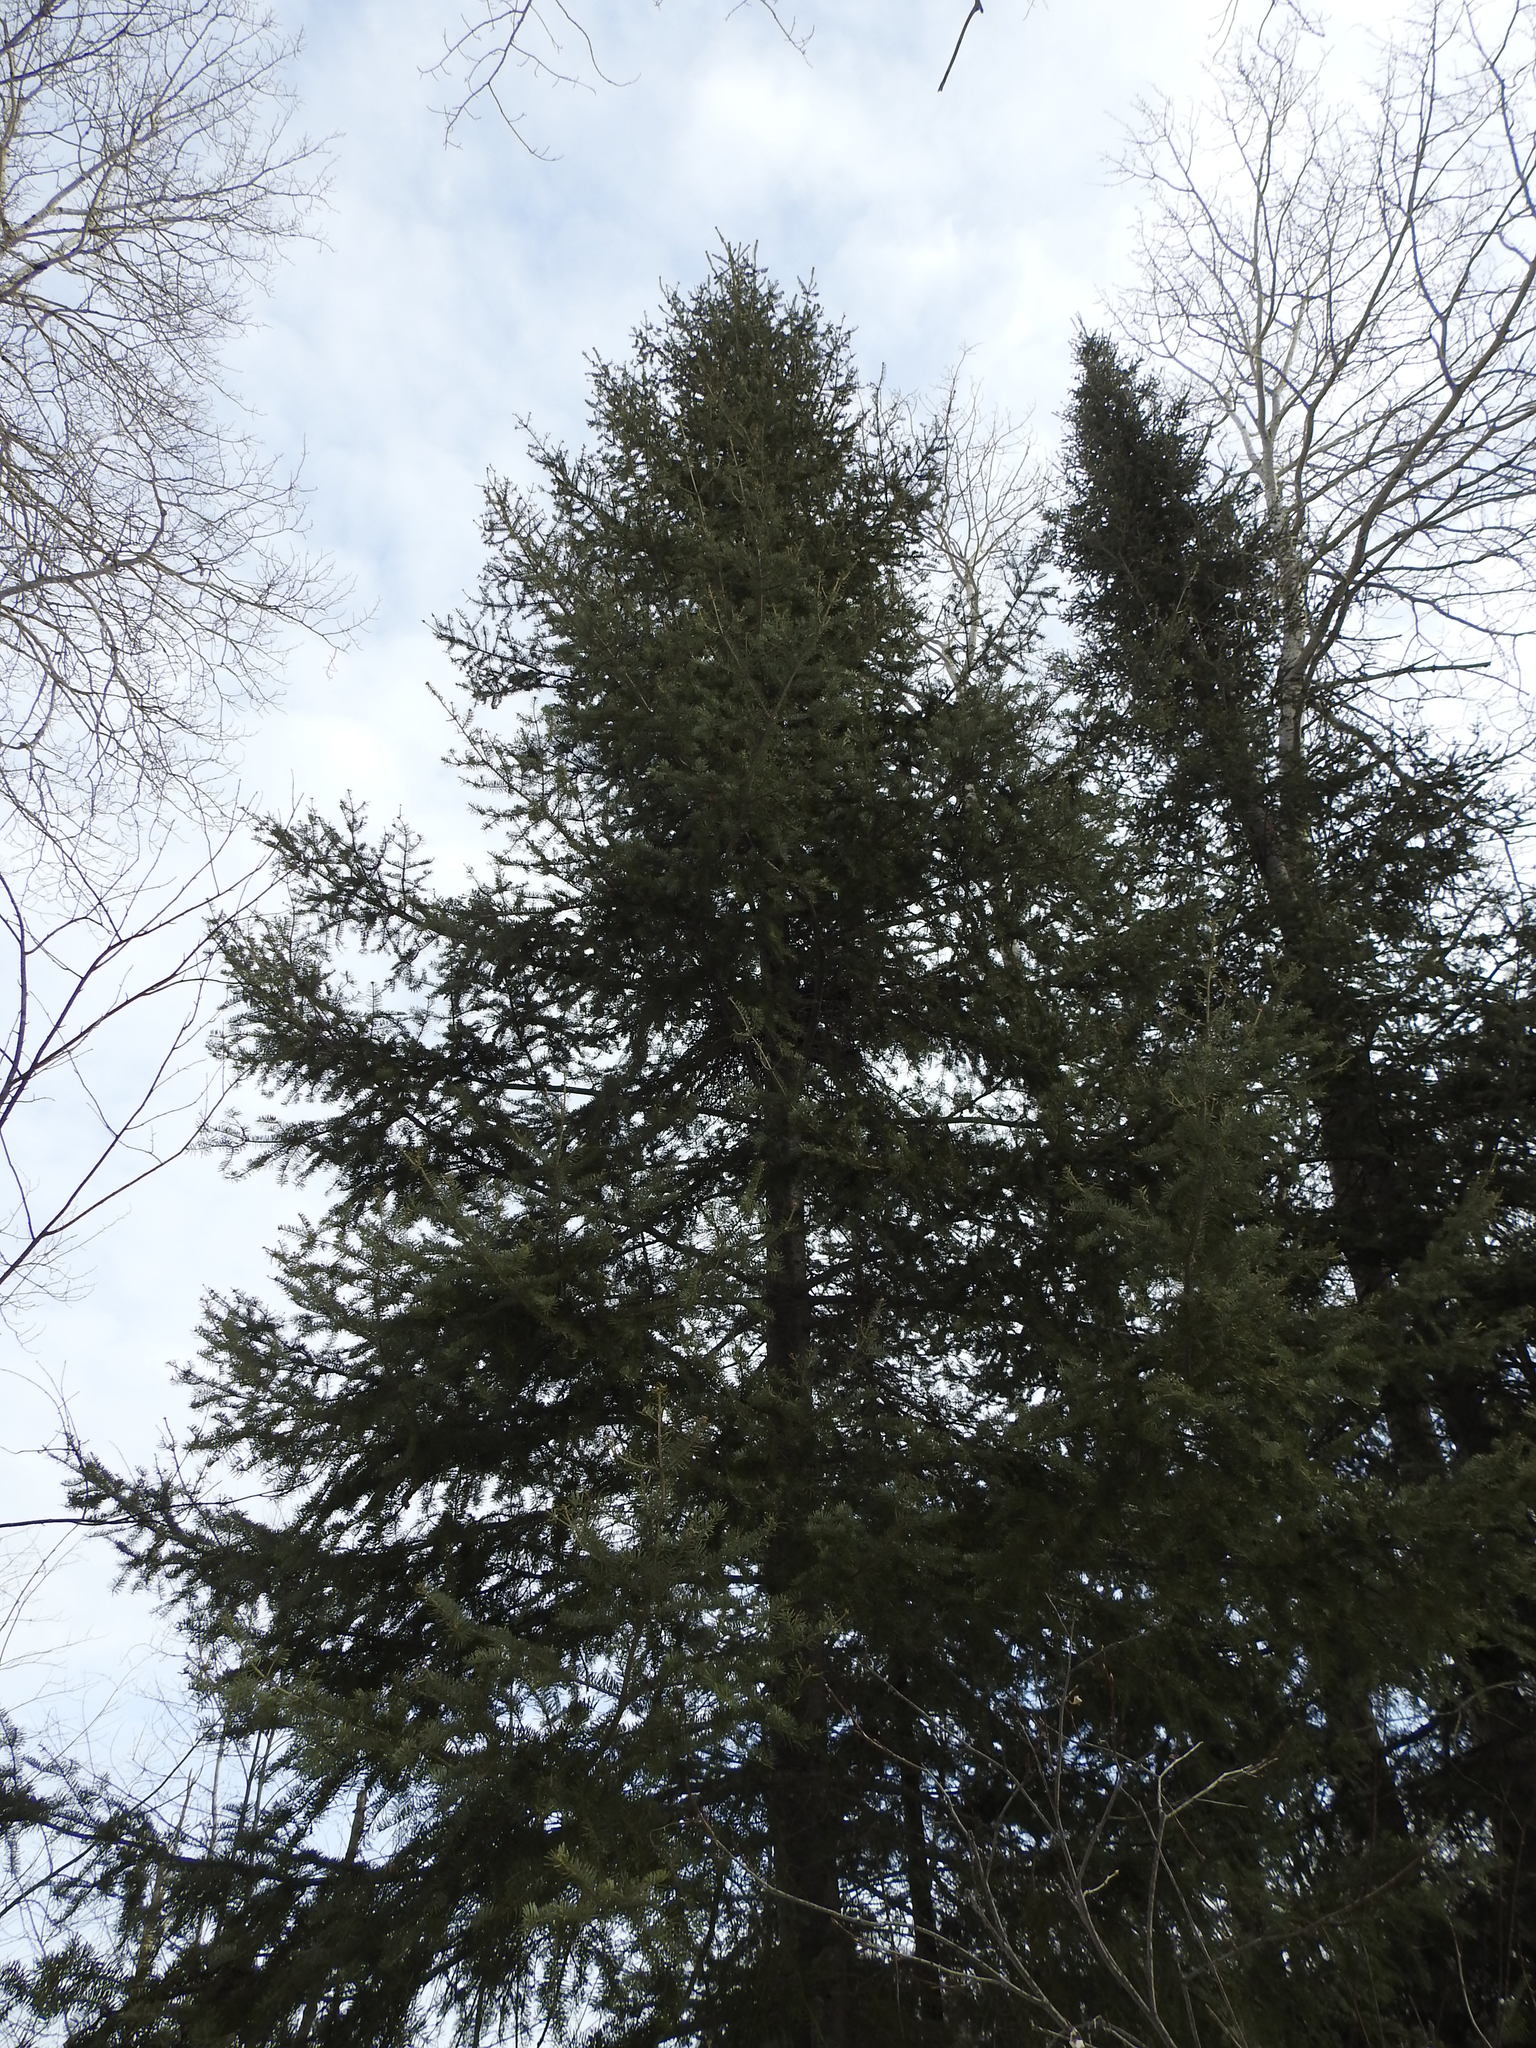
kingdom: Plantae
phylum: Tracheophyta
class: Pinopsida
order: Pinales
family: Pinaceae
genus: Abies
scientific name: Abies balsamea
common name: Balsam fir
